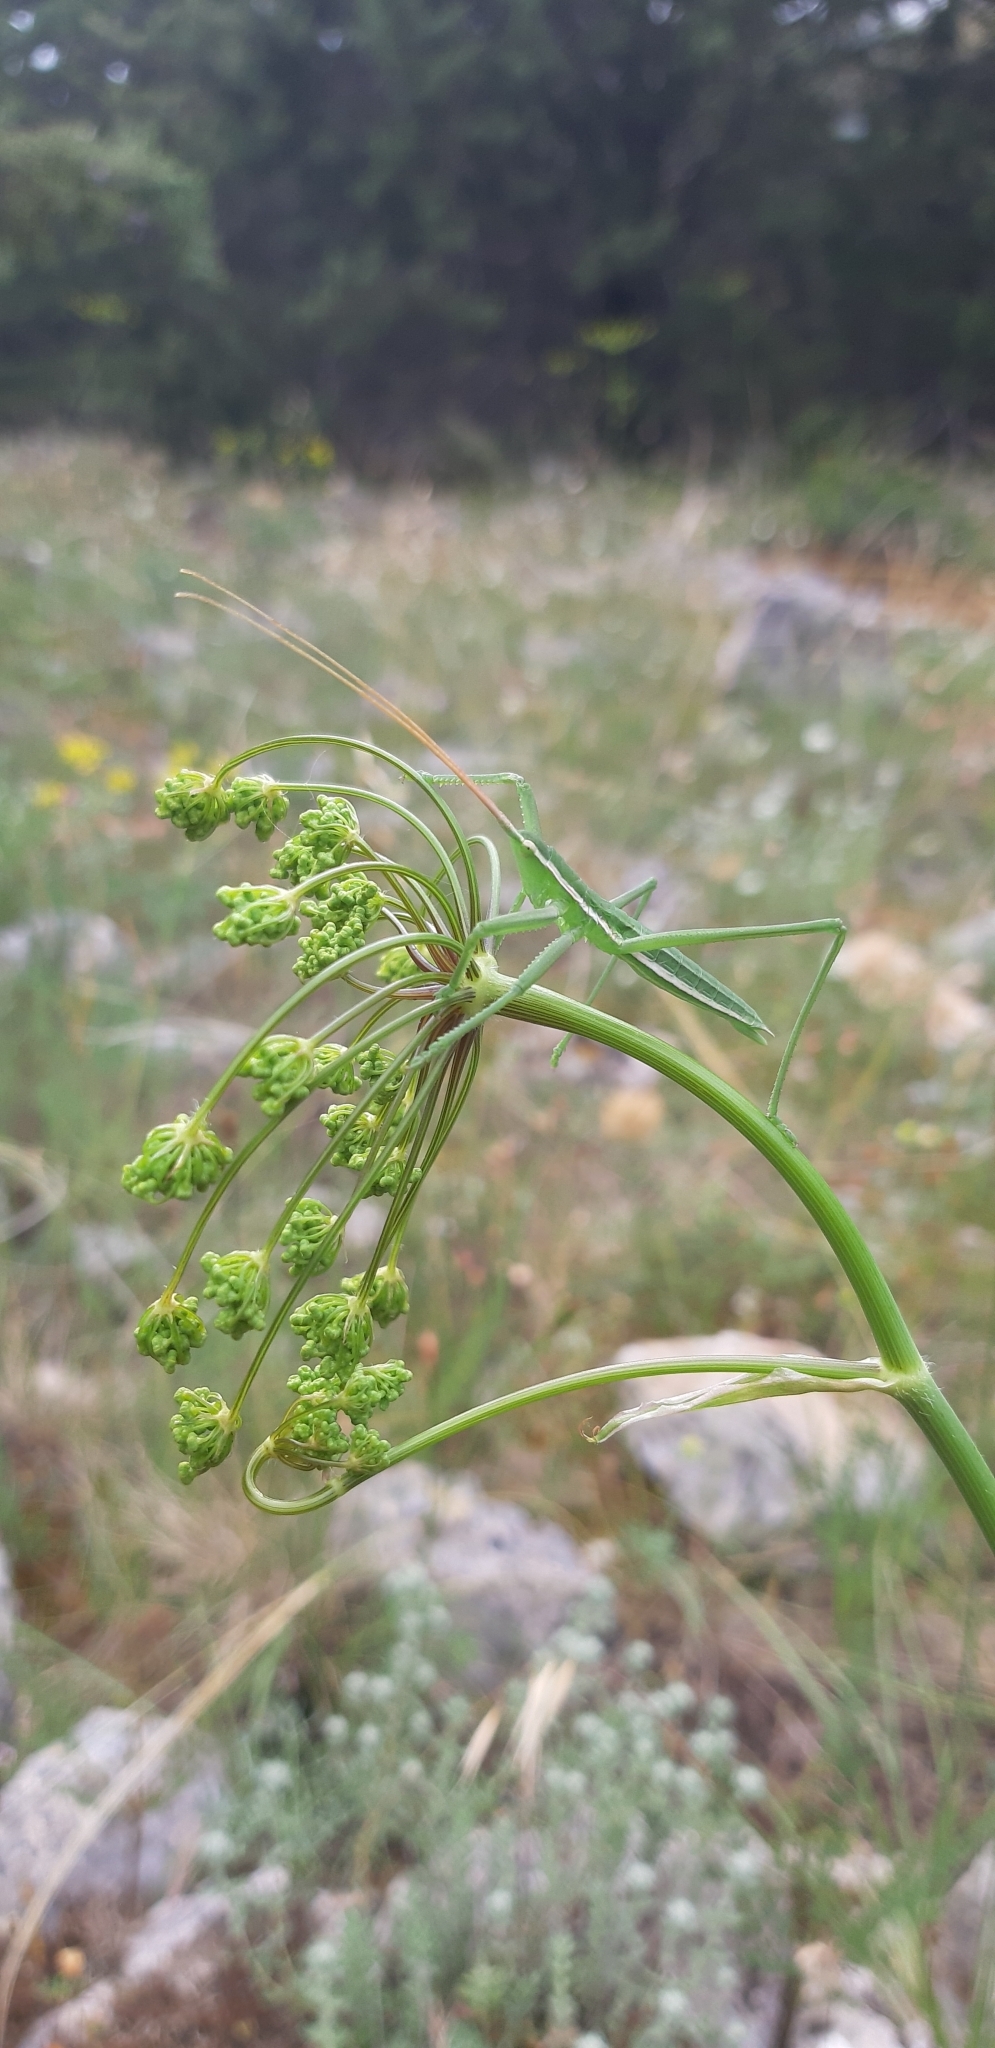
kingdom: Animalia
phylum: Arthropoda
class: Insecta
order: Orthoptera
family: Tettigoniidae
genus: Saga
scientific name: Saga pedo
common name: Common predatory bush-cricket
